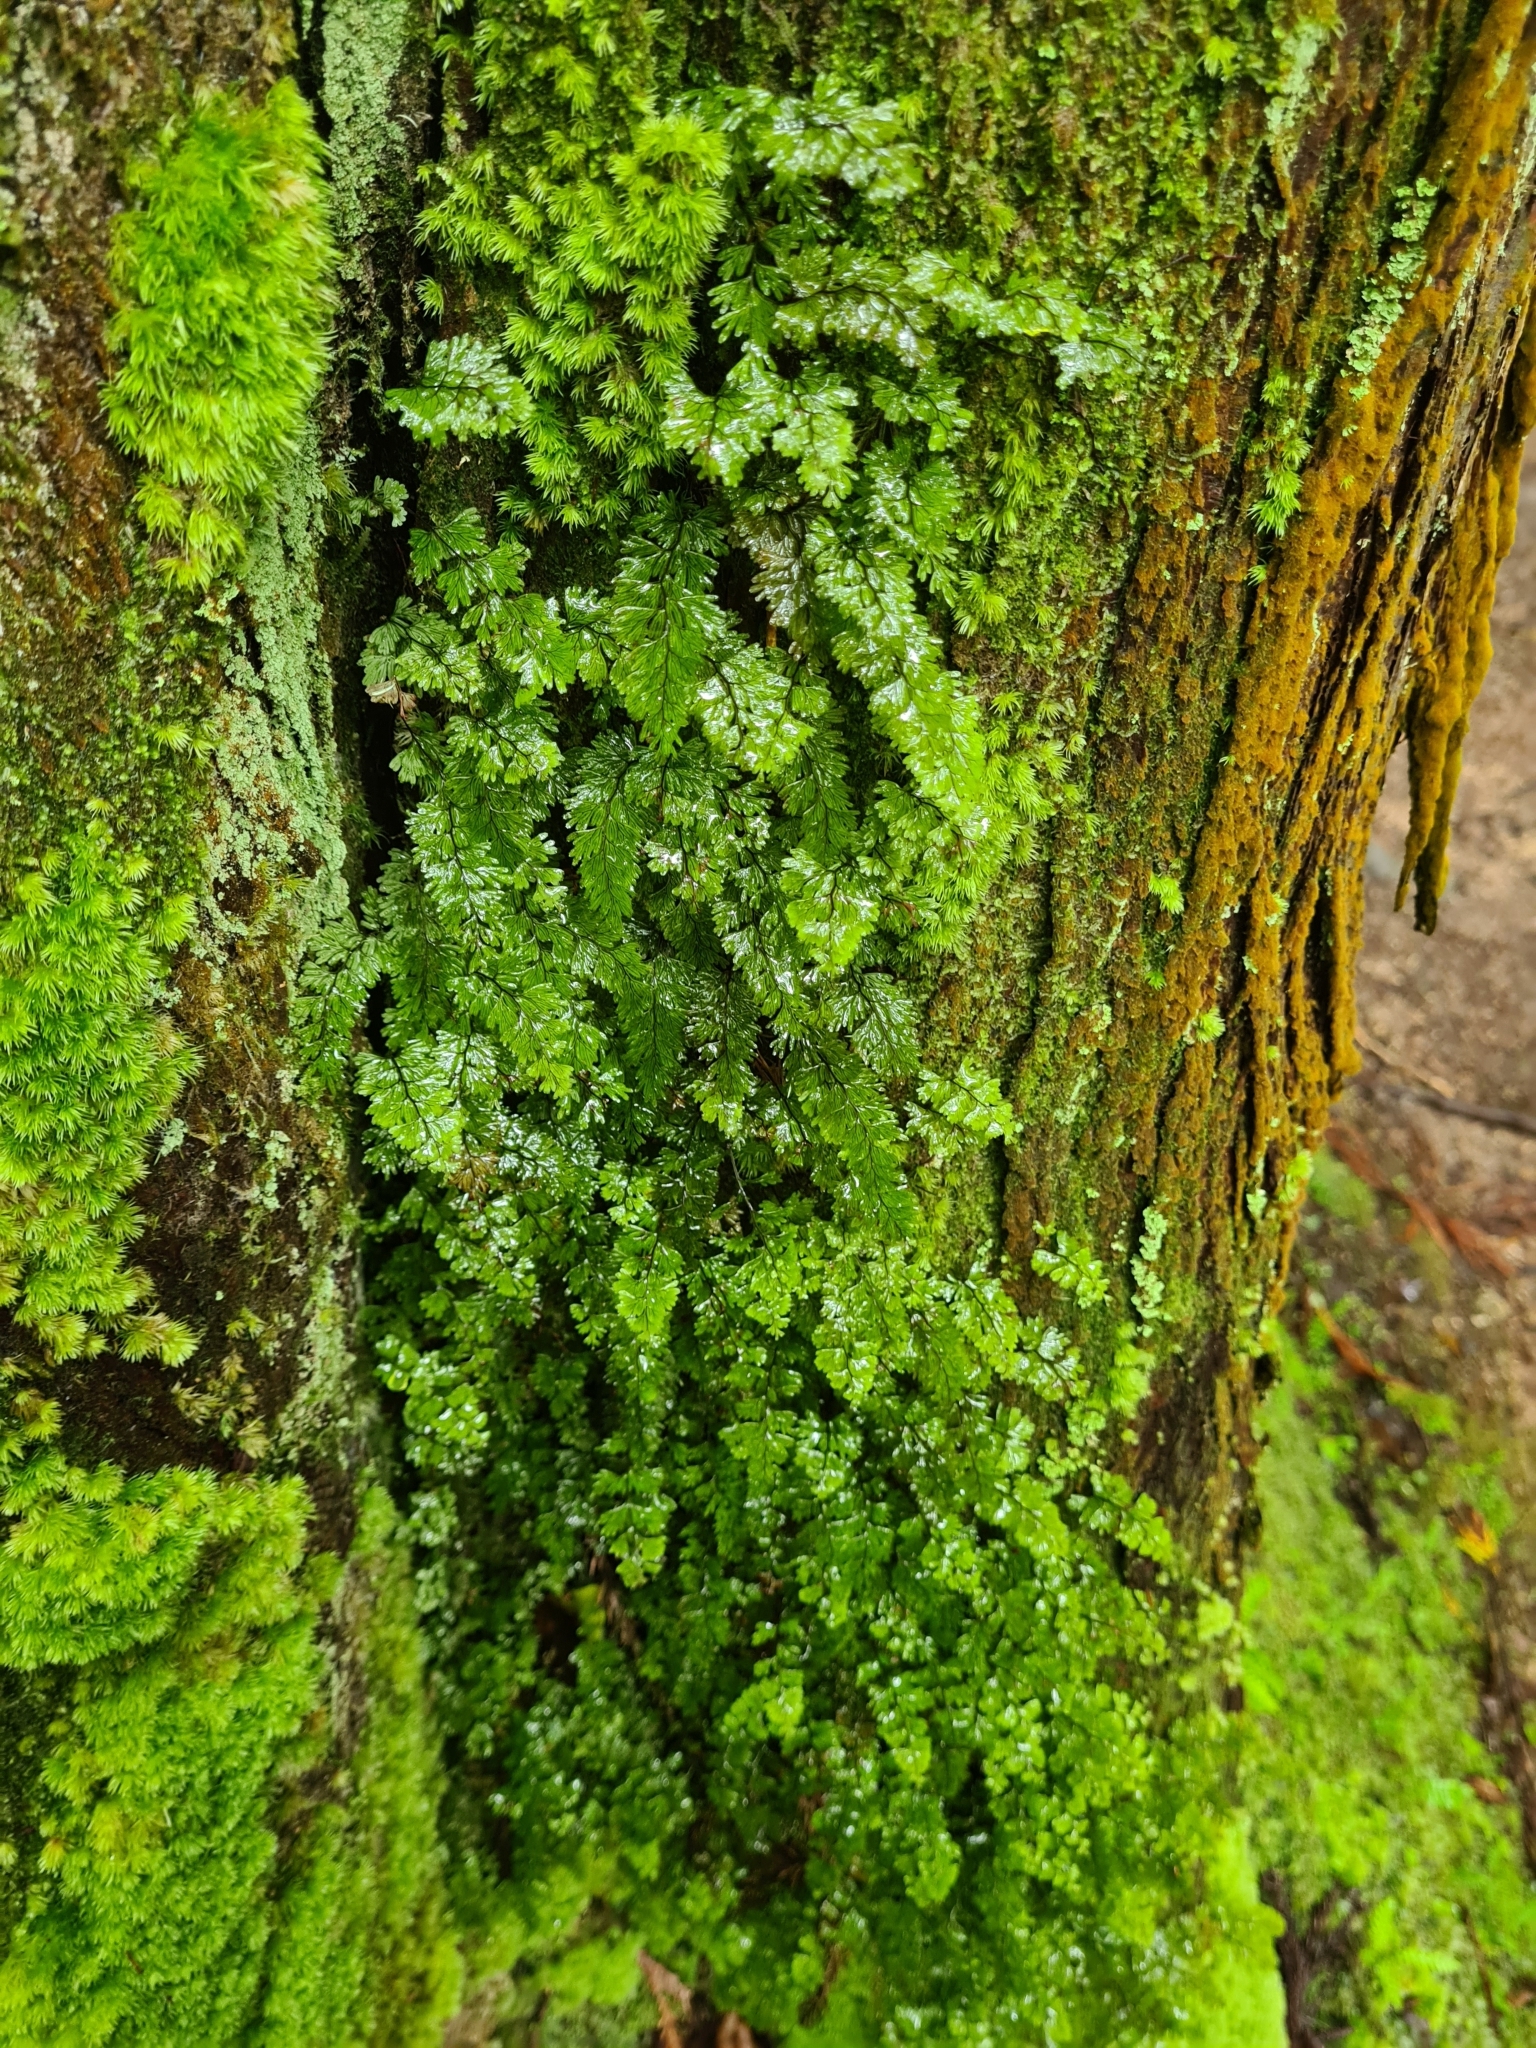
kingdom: Plantae
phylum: Tracheophyta
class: Polypodiopsida
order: Hymenophyllales
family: Hymenophyllaceae
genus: Hymenophyllum
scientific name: Hymenophyllum tunbrigense
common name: Tunbridge filmy fern
